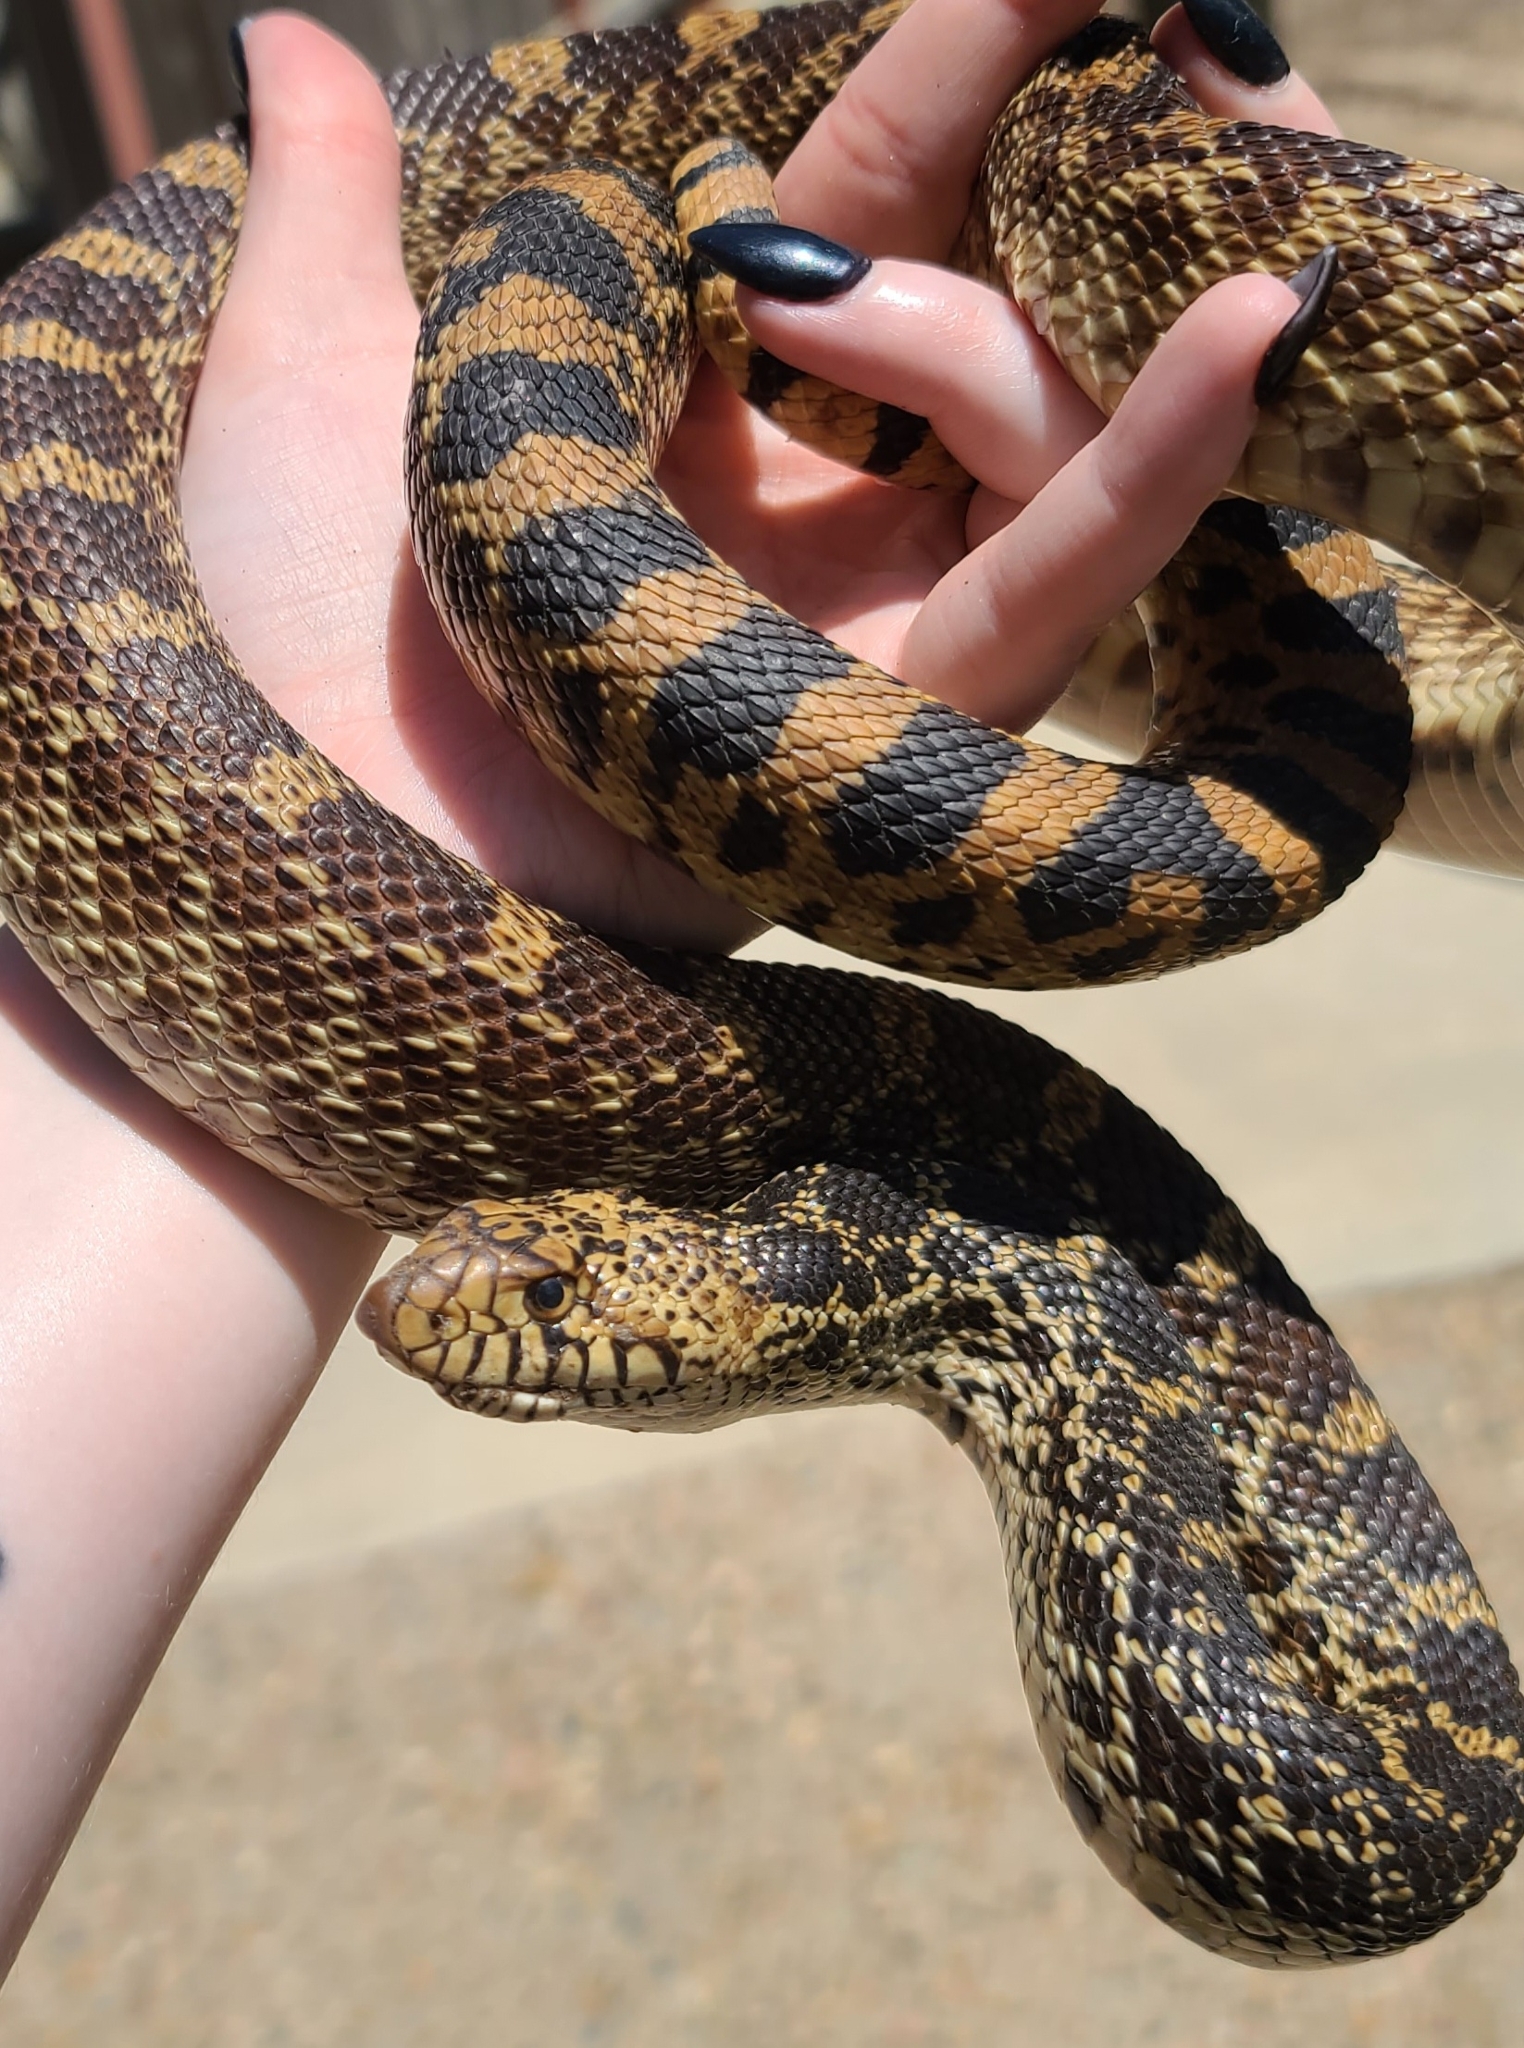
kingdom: Animalia
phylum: Chordata
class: Squamata
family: Colubridae
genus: Pituophis
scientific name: Pituophis catenifer
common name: Gopher snake
